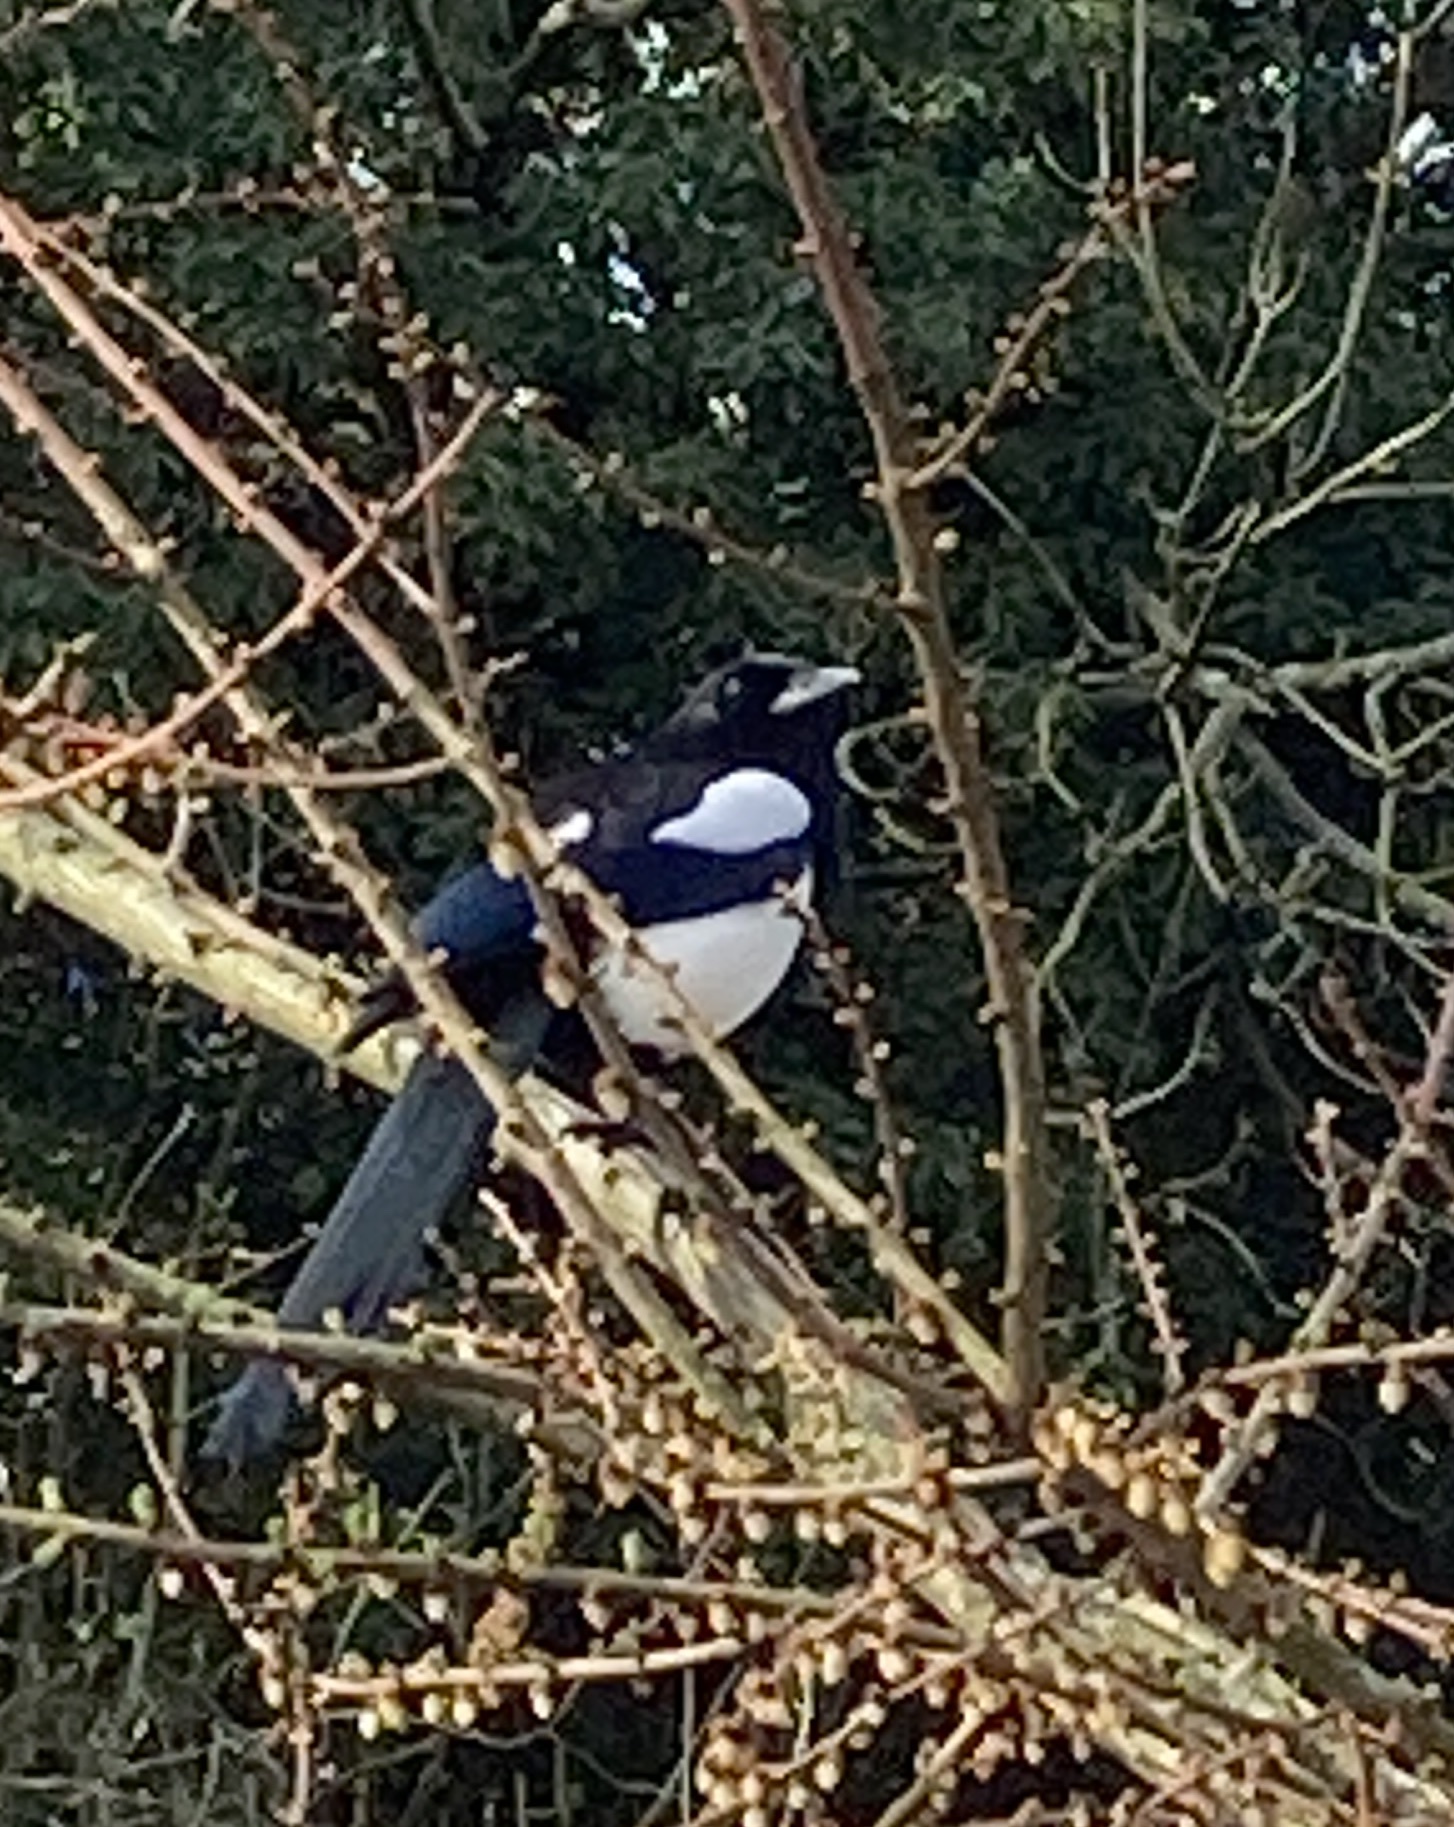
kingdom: Animalia
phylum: Chordata
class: Aves
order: Passeriformes
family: Corvidae
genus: Pica
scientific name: Pica pica
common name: Eurasian magpie
